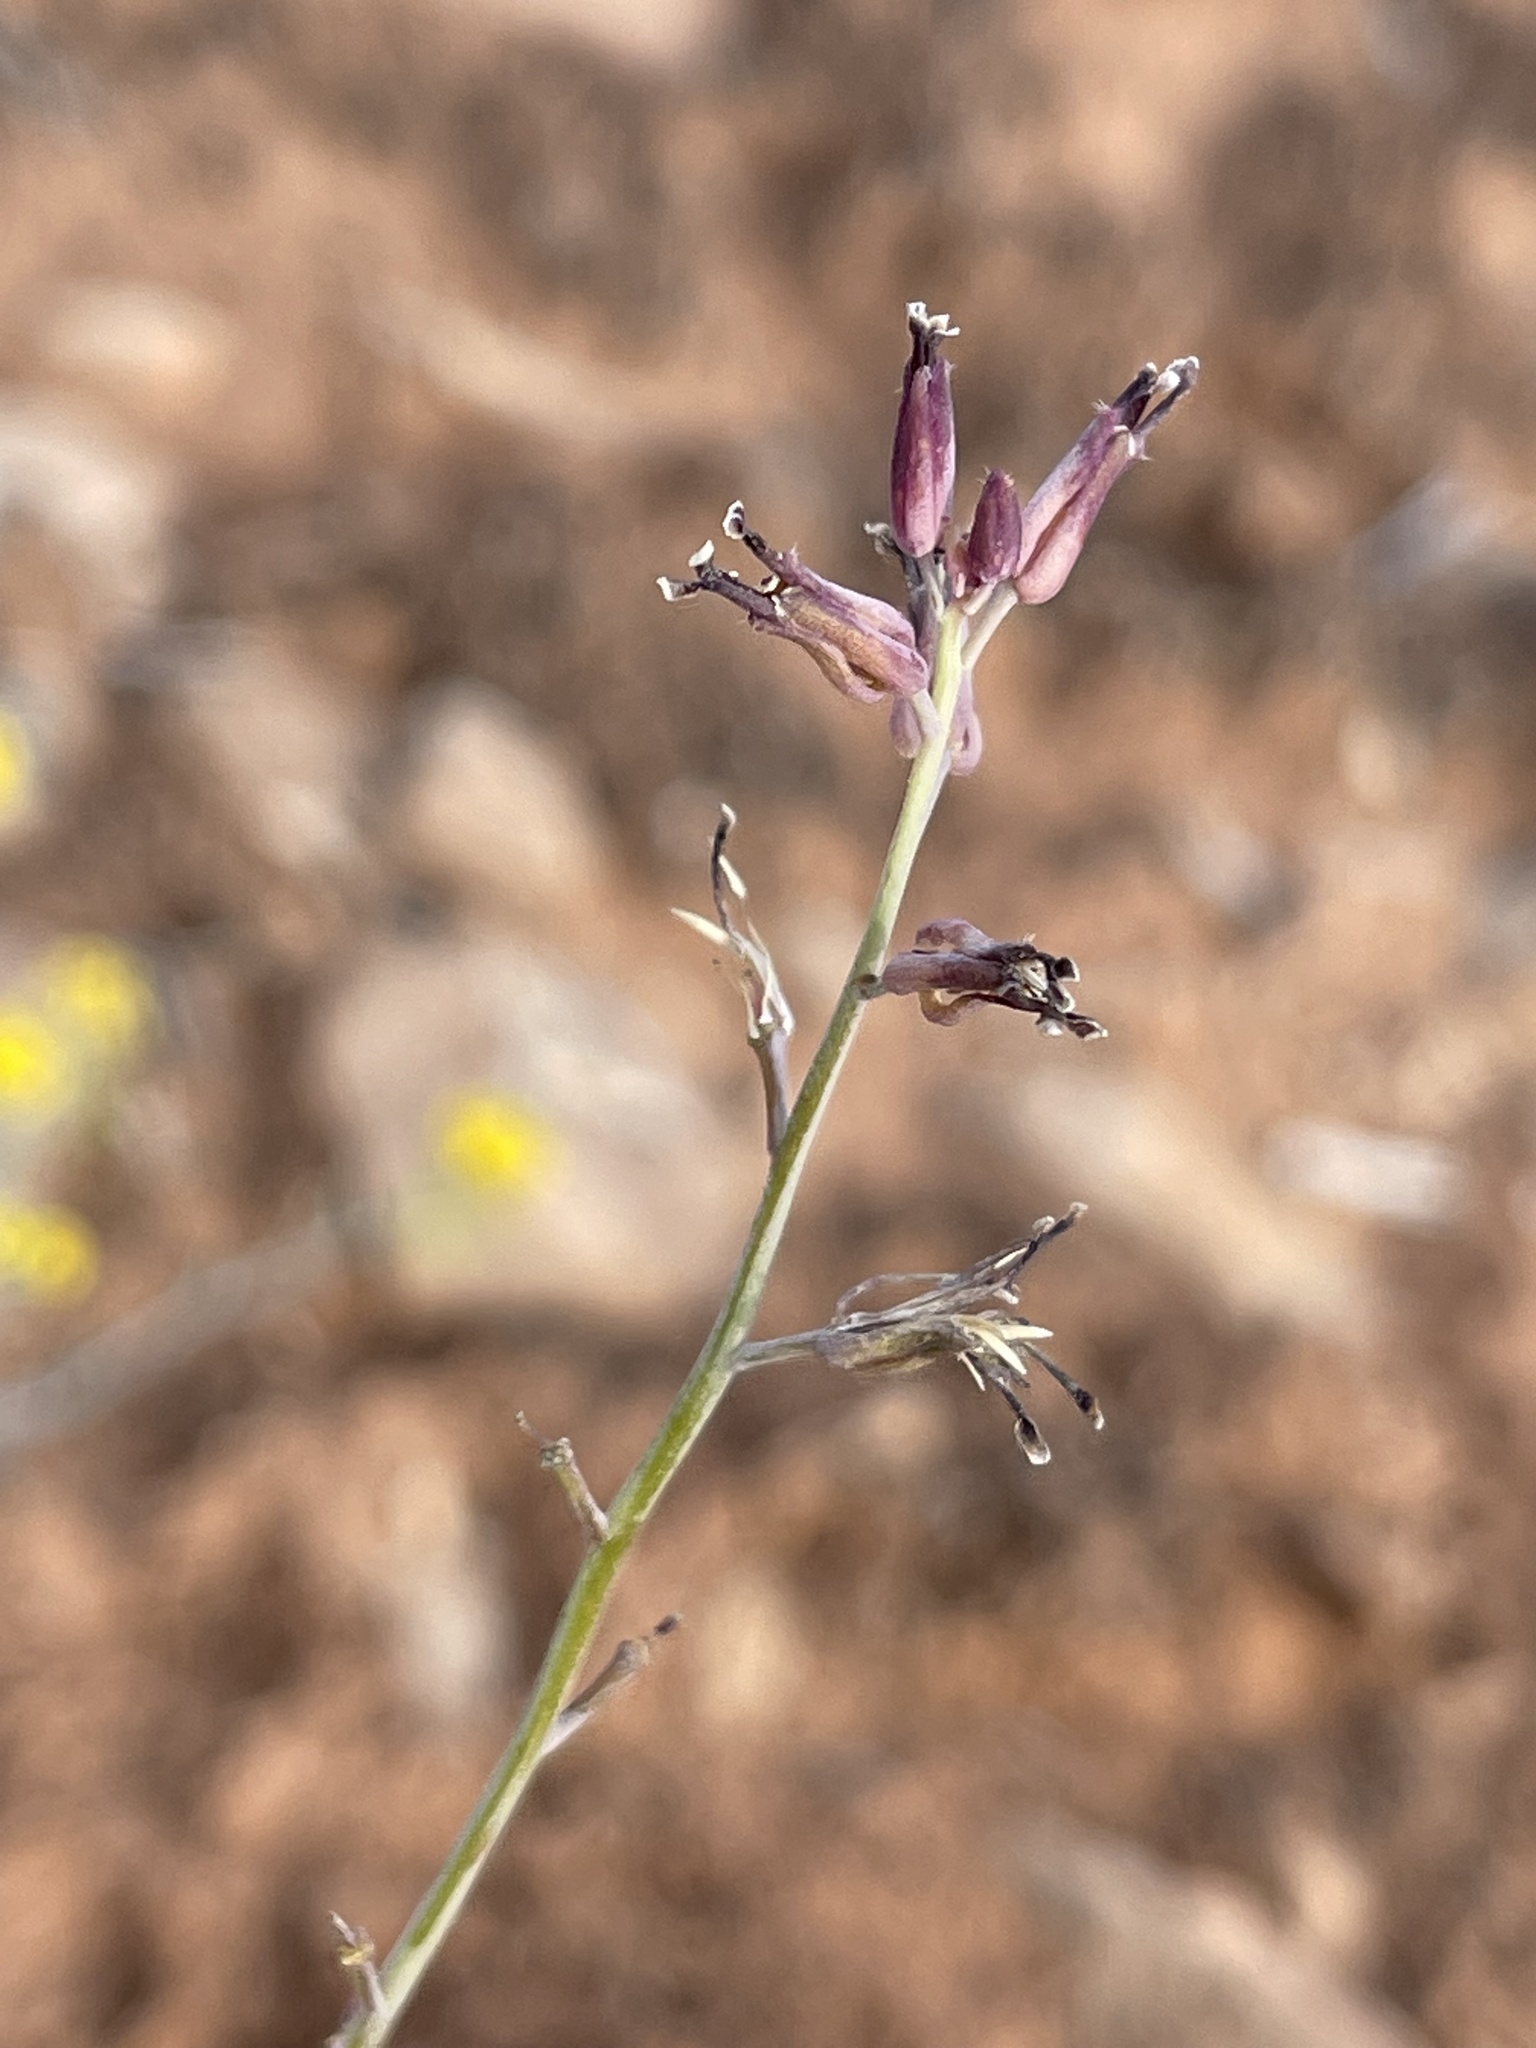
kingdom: Plantae
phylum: Tracheophyta
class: Magnoliopsida
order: Brassicales
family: Brassicaceae
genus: Streptanthus
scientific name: Streptanthus cordatus
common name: Heart-leaf jewel-flower
